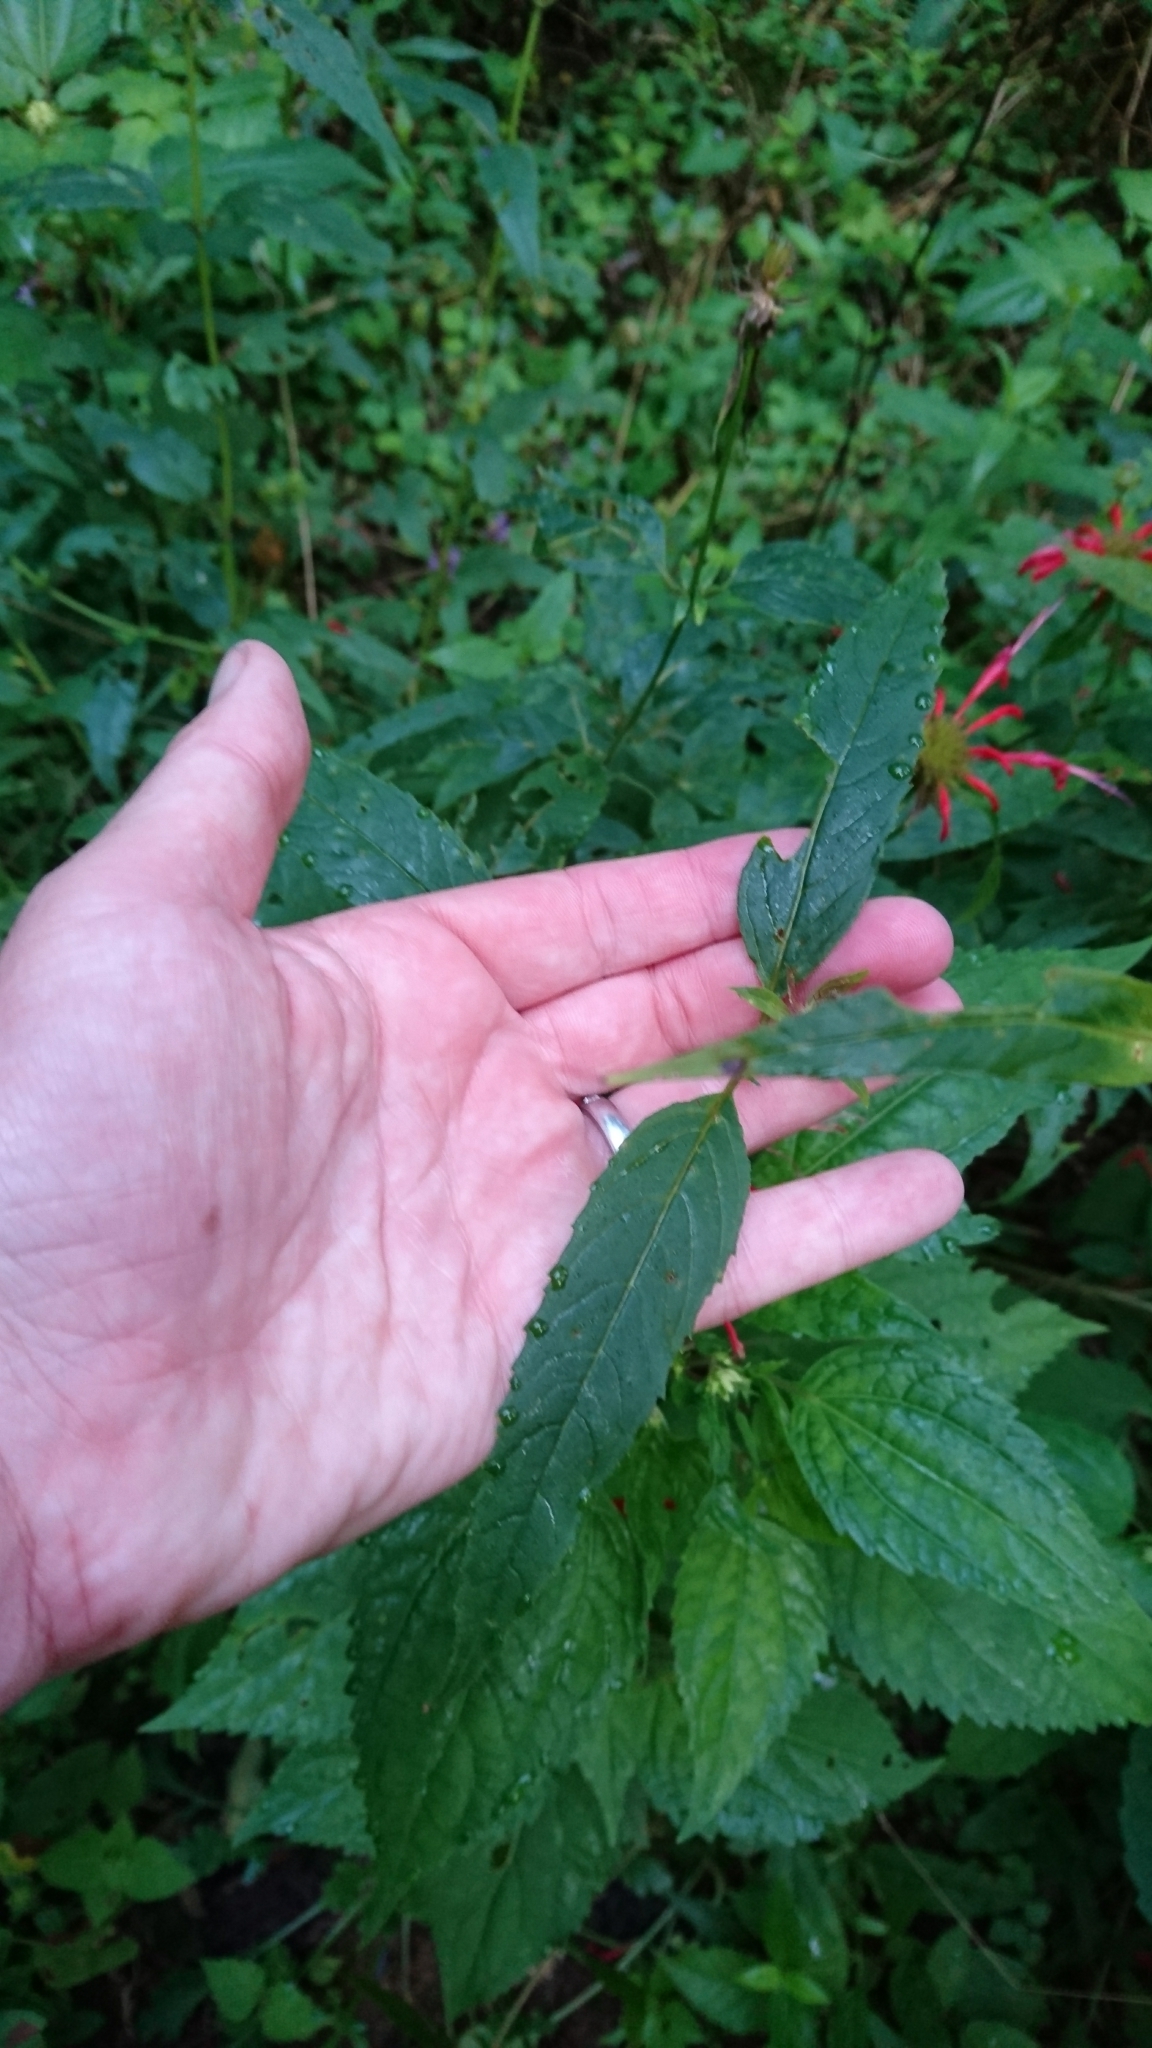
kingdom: Plantae
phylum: Tracheophyta
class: Magnoliopsida
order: Lamiales
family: Lamiaceae
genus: Monarda
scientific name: Monarda didyma
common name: Beebalm
